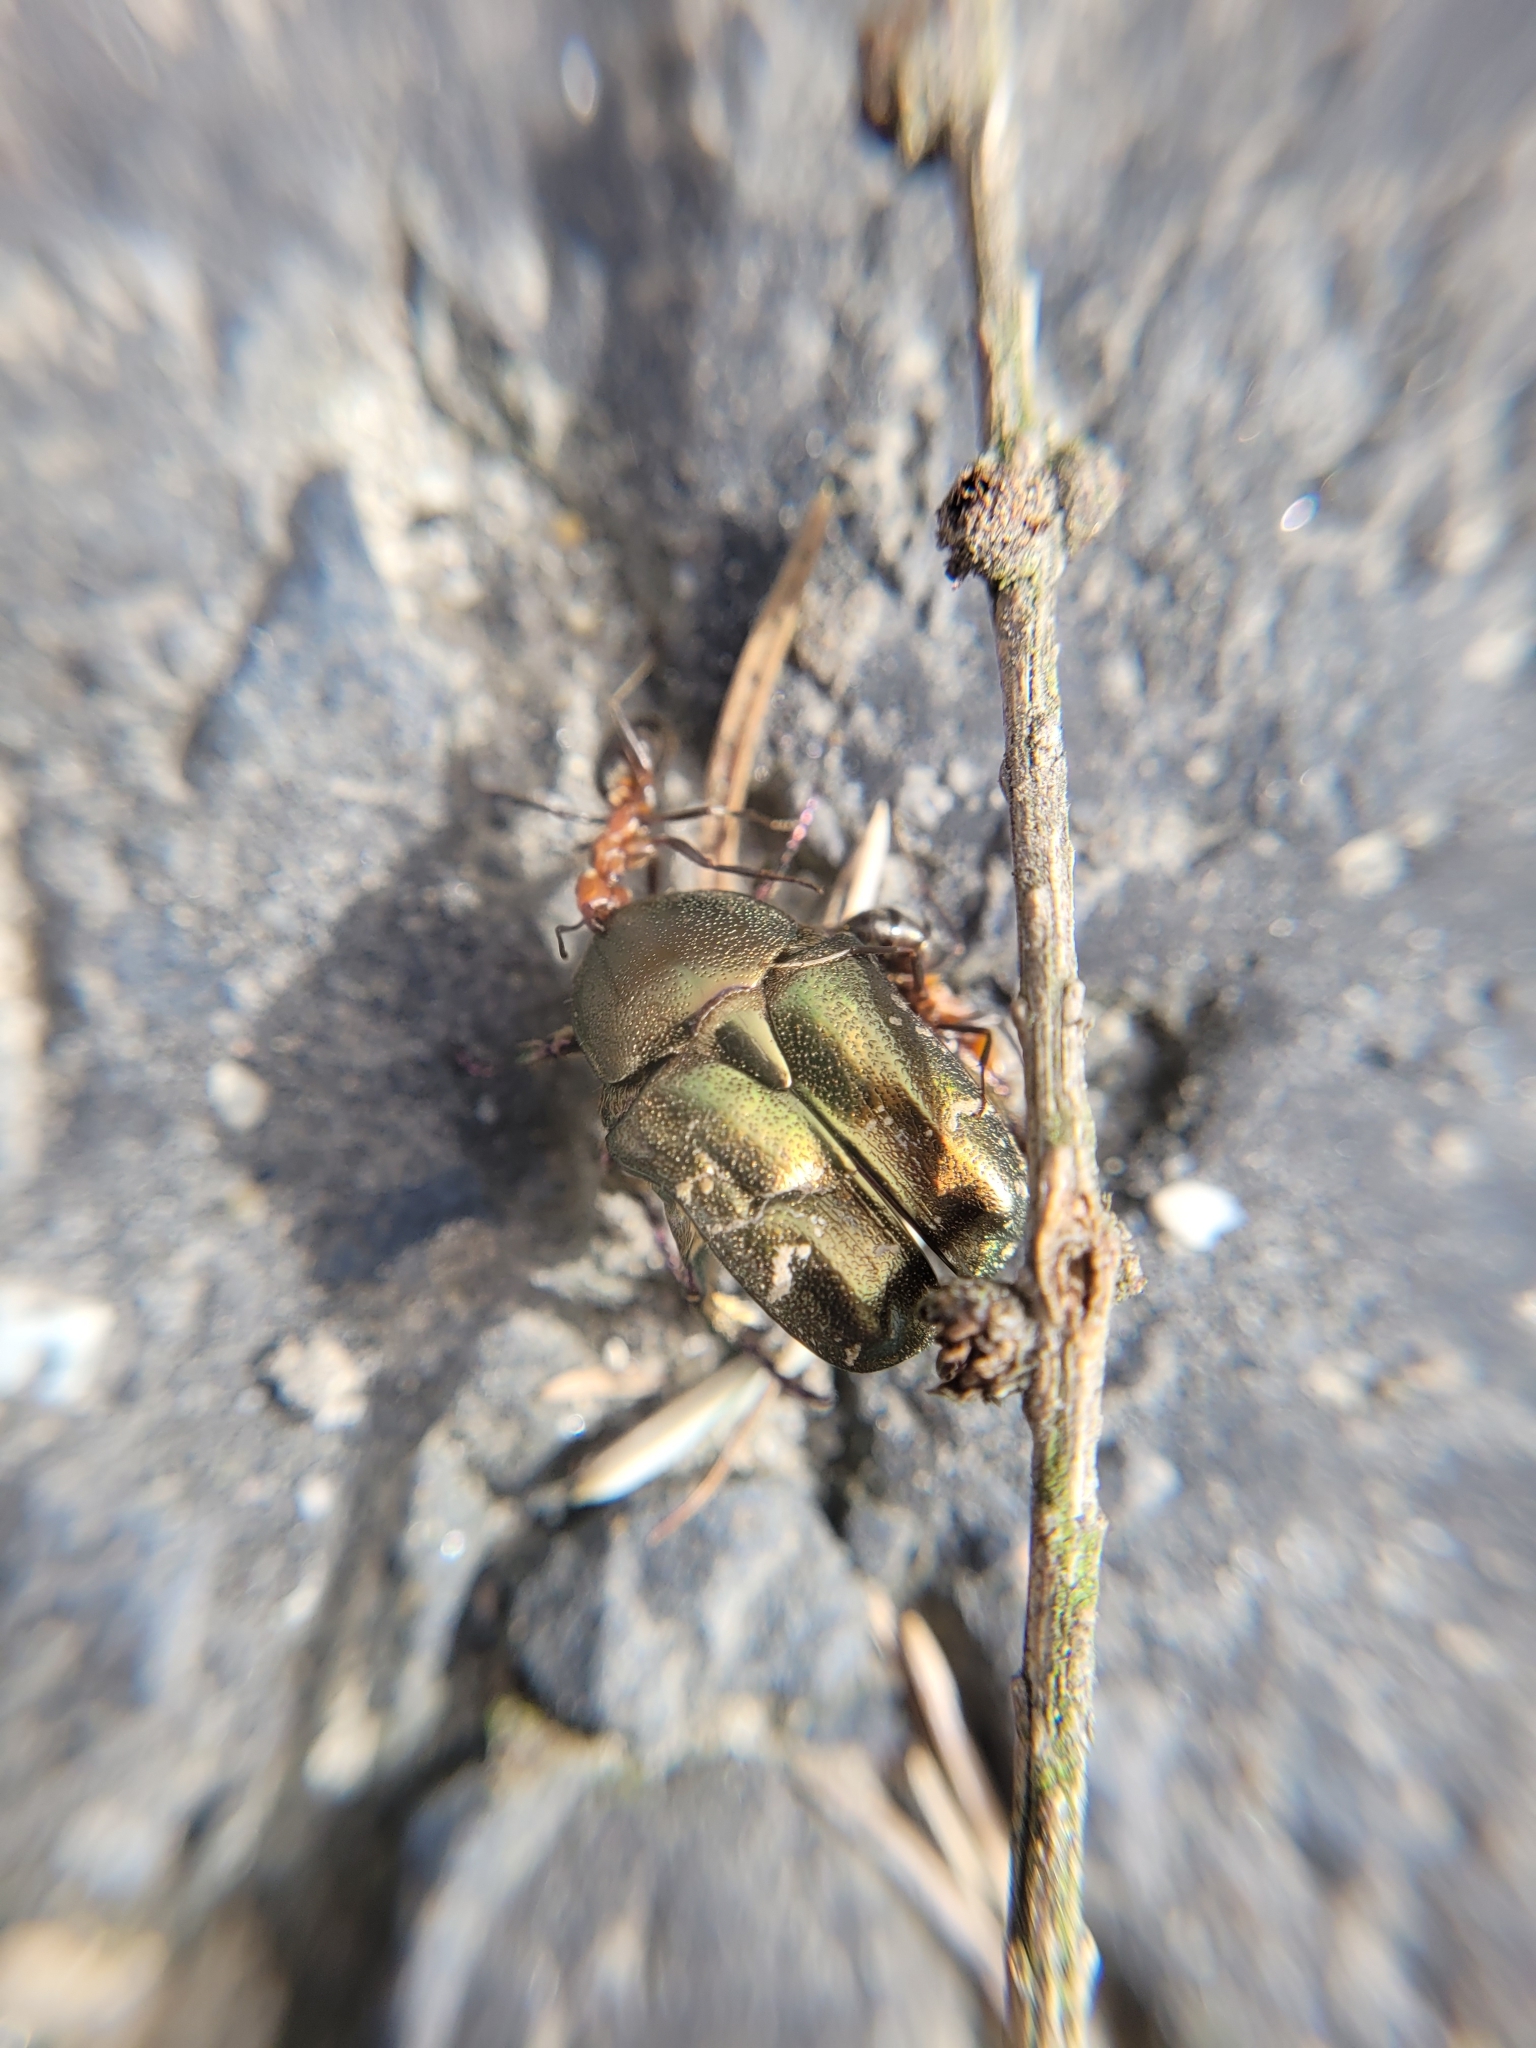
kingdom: Animalia
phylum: Arthropoda
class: Insecta
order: Coleoptera
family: Scarabaeidae
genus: Protaetia
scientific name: Protaetia cuprea
